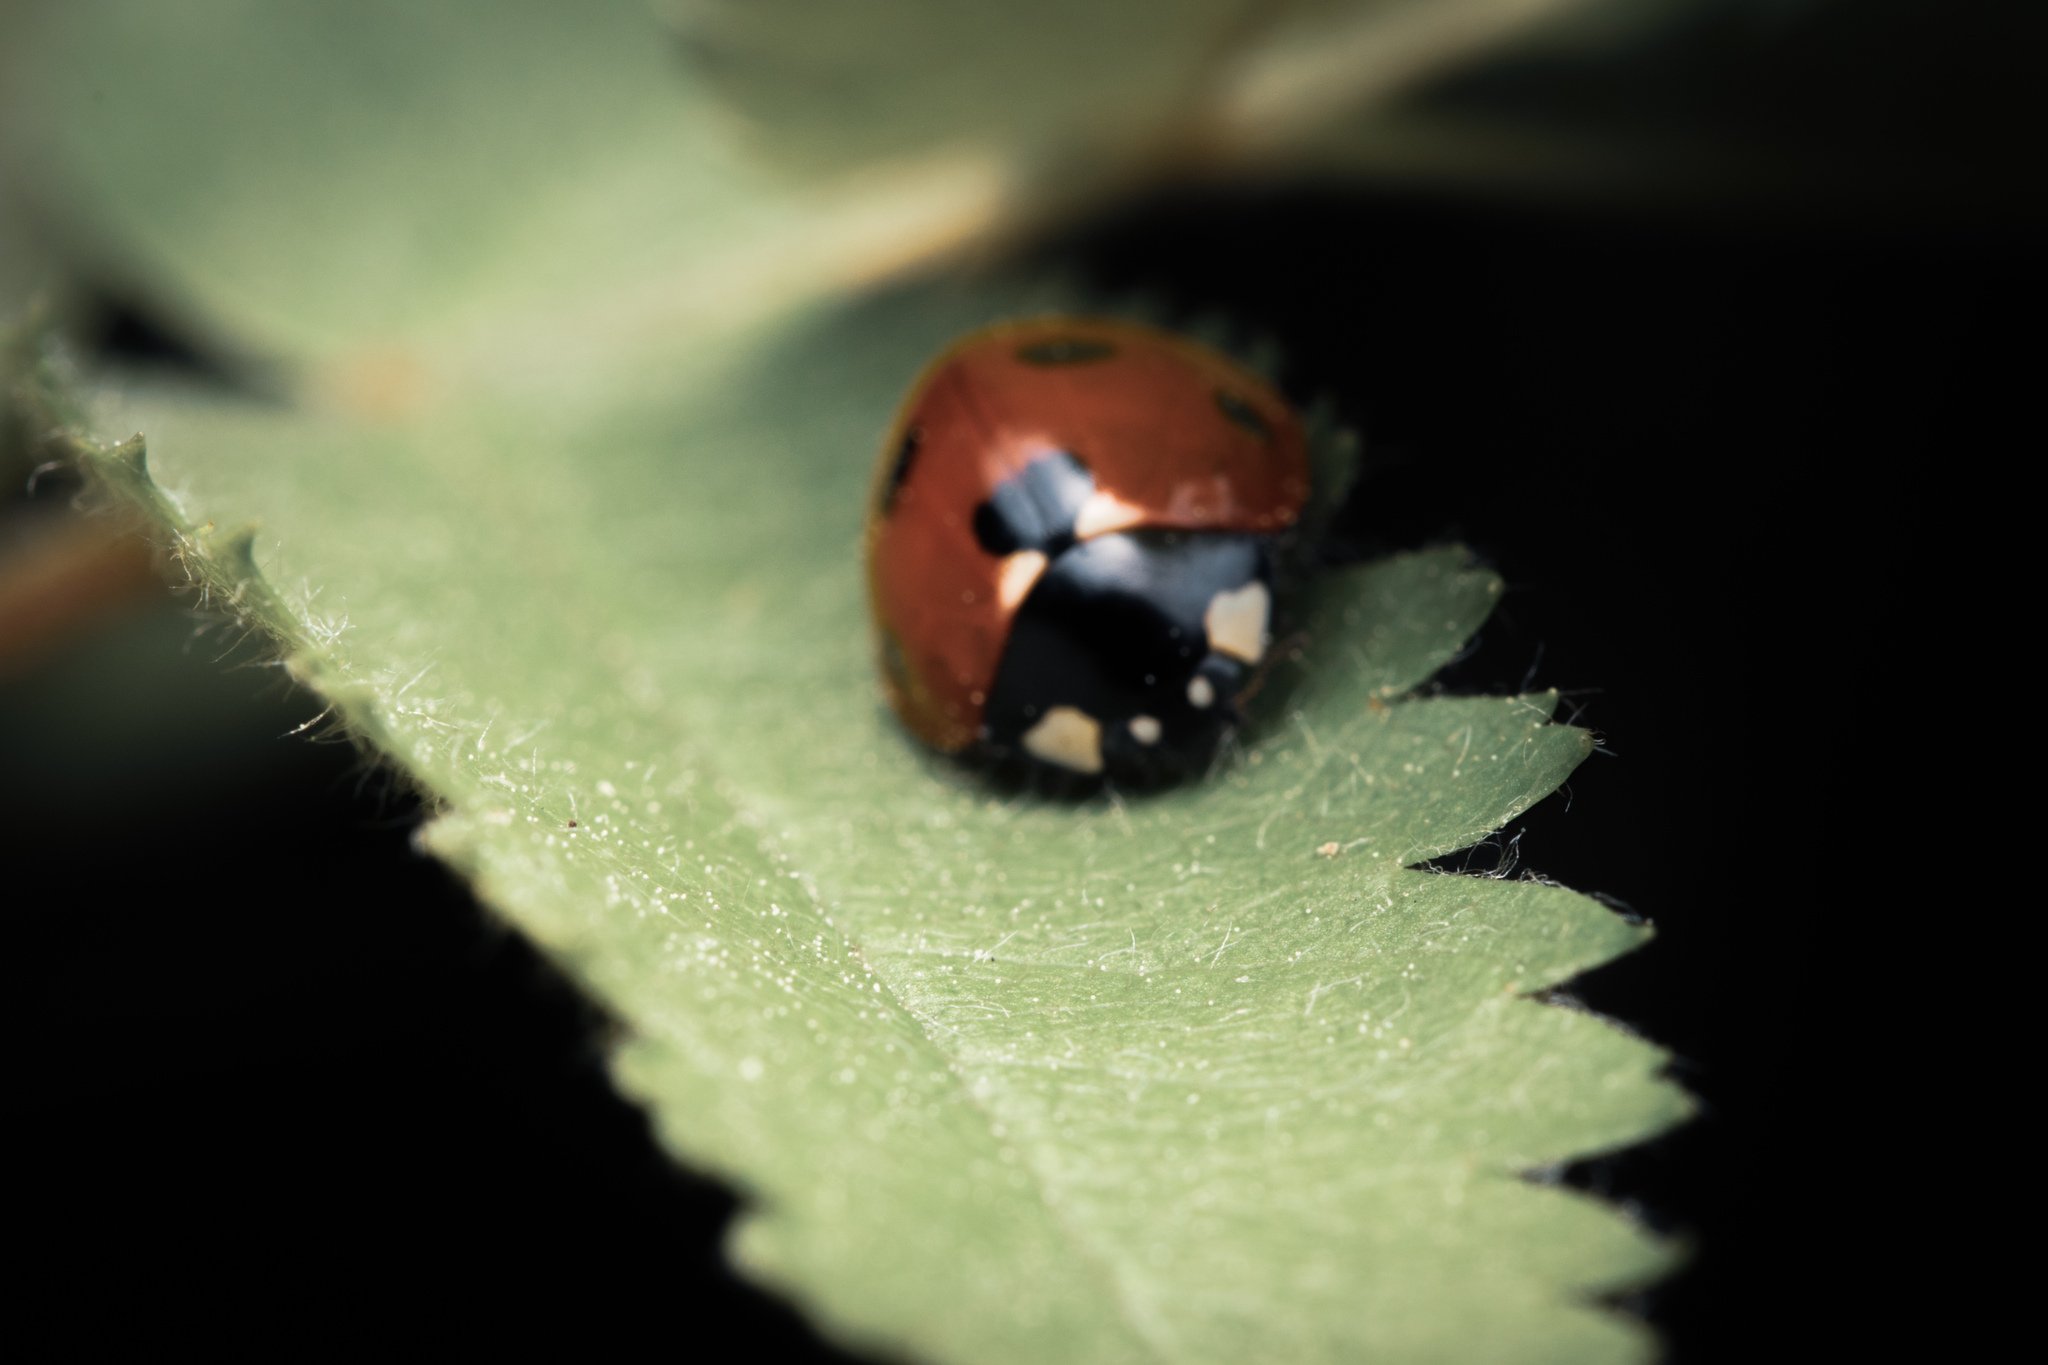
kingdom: Animalia
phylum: Arthropoda
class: Insecta
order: Coleoptera
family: Coccinellidae
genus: Coccinella
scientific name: Coccinella septempunctata
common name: Sevenspotted lady beetle
